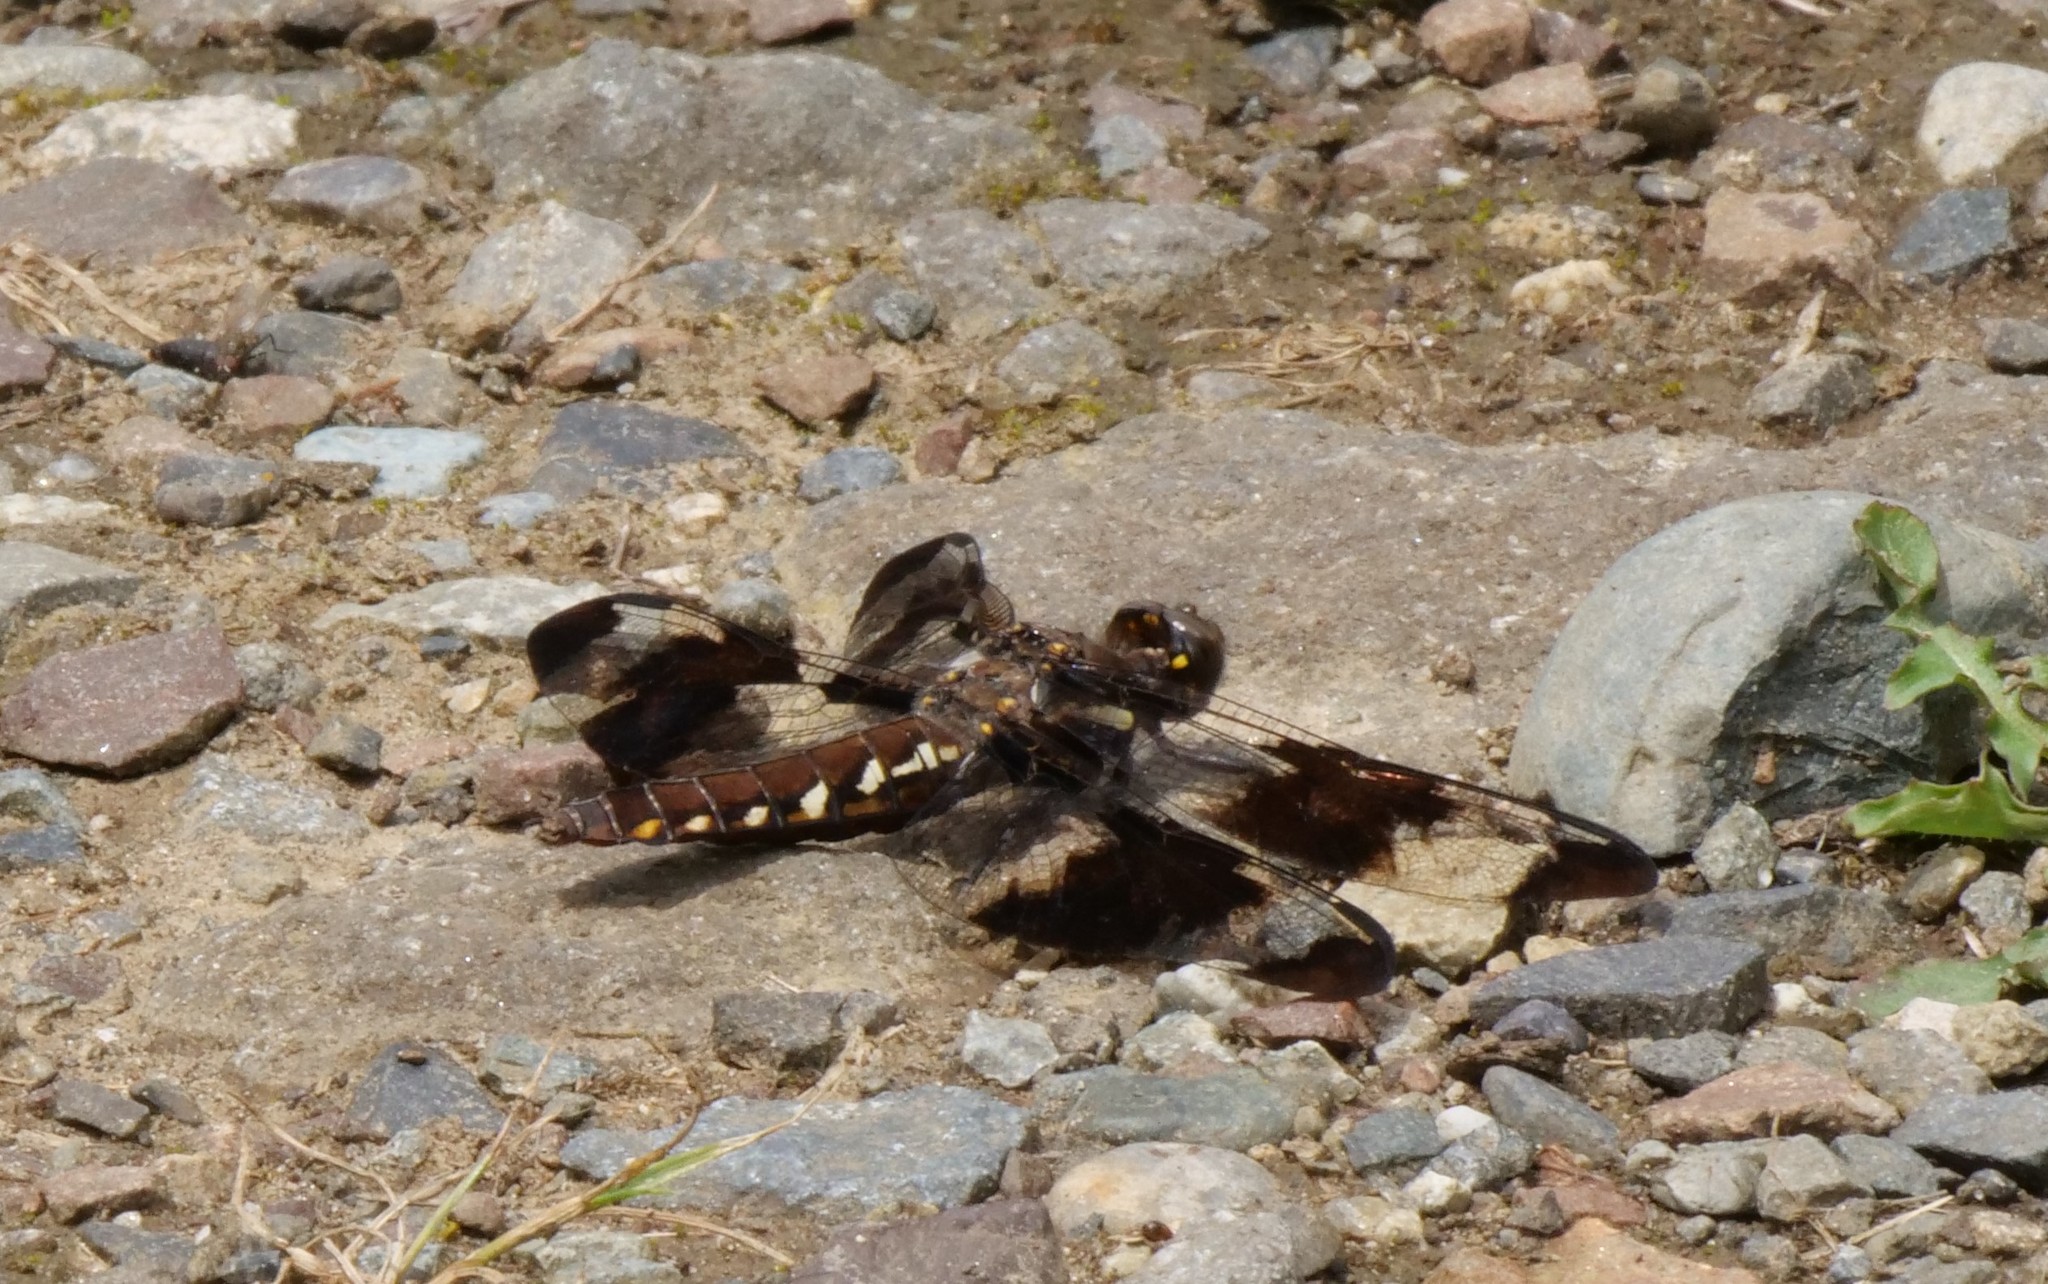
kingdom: Animalia
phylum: Arthropoda
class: Insecta
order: Odonata
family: Libellulidae
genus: Plathemis
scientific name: Plathemis lydia
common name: Common whitetail
